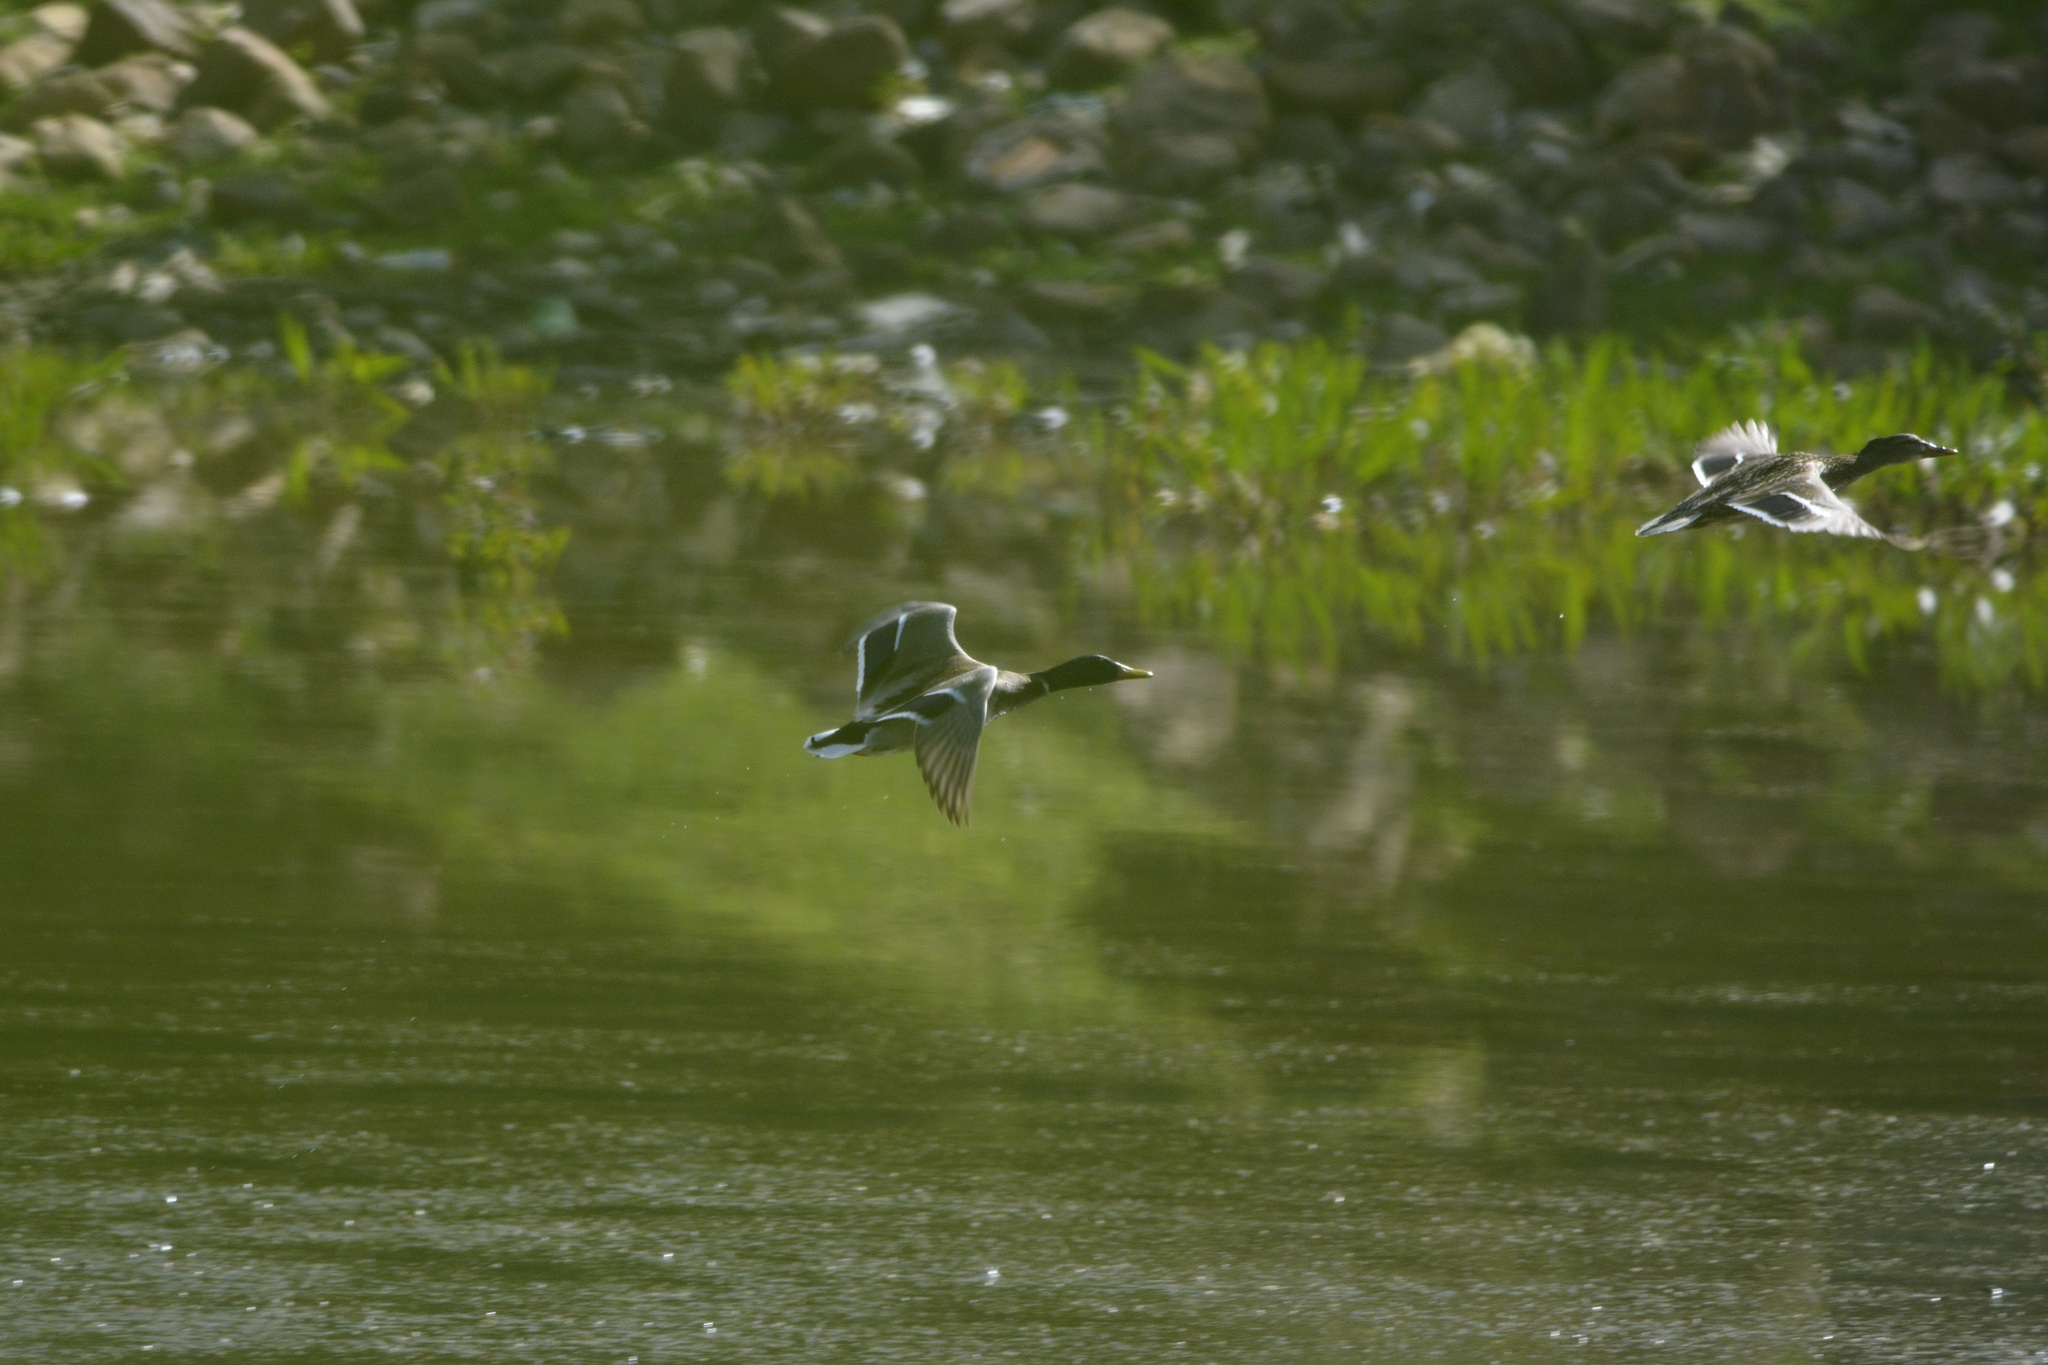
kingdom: Animalia
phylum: Chordata
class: Aves
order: Anseriformes
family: Anatidae
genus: Anas
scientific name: Anas platyrhynchos
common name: Mallard
